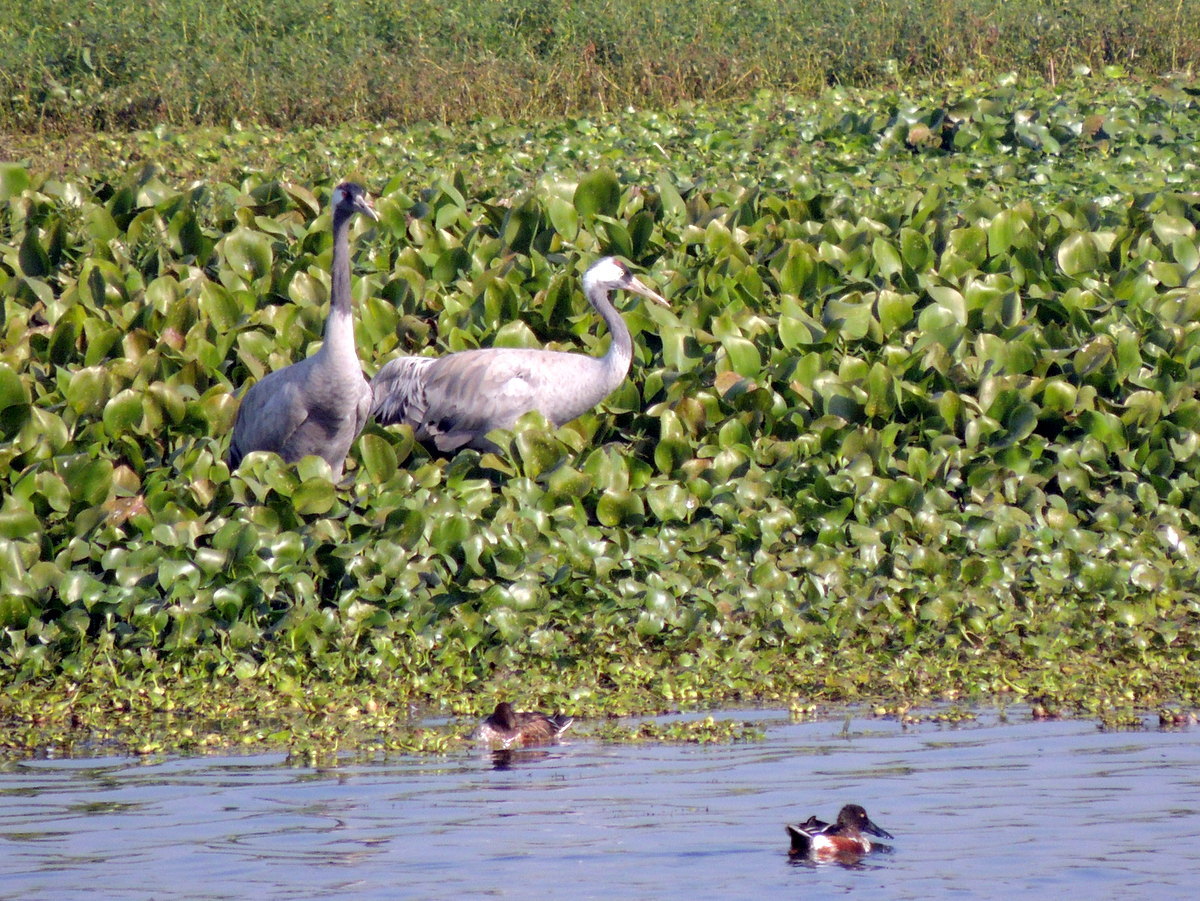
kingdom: Animalia
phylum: Chordata
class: Aves
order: Gruiformes
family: Gruidae
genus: Grus
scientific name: Grus grus
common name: Common crane
